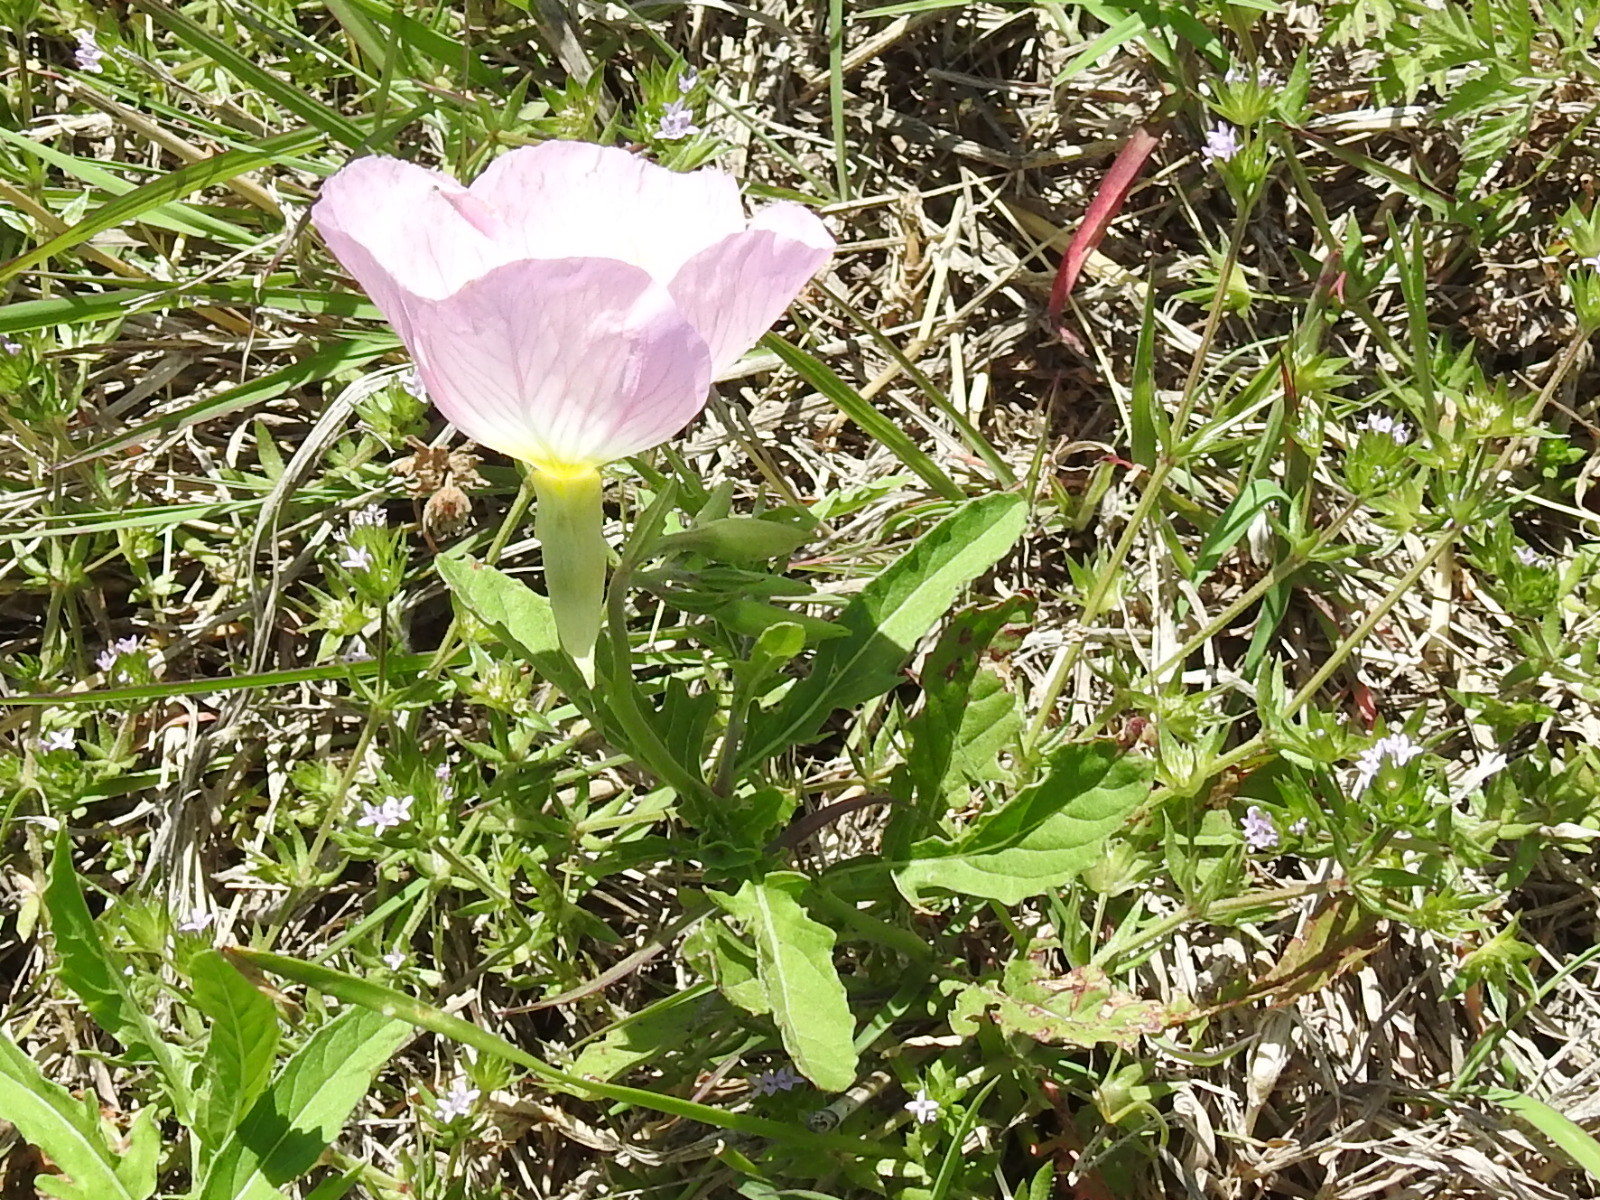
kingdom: Plantae
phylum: Tracheophyta
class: Magnoliopsida
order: Myrtales
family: Onagraceae
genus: Oenothera
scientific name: Oenothera speciosa
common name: White evening-primrose
